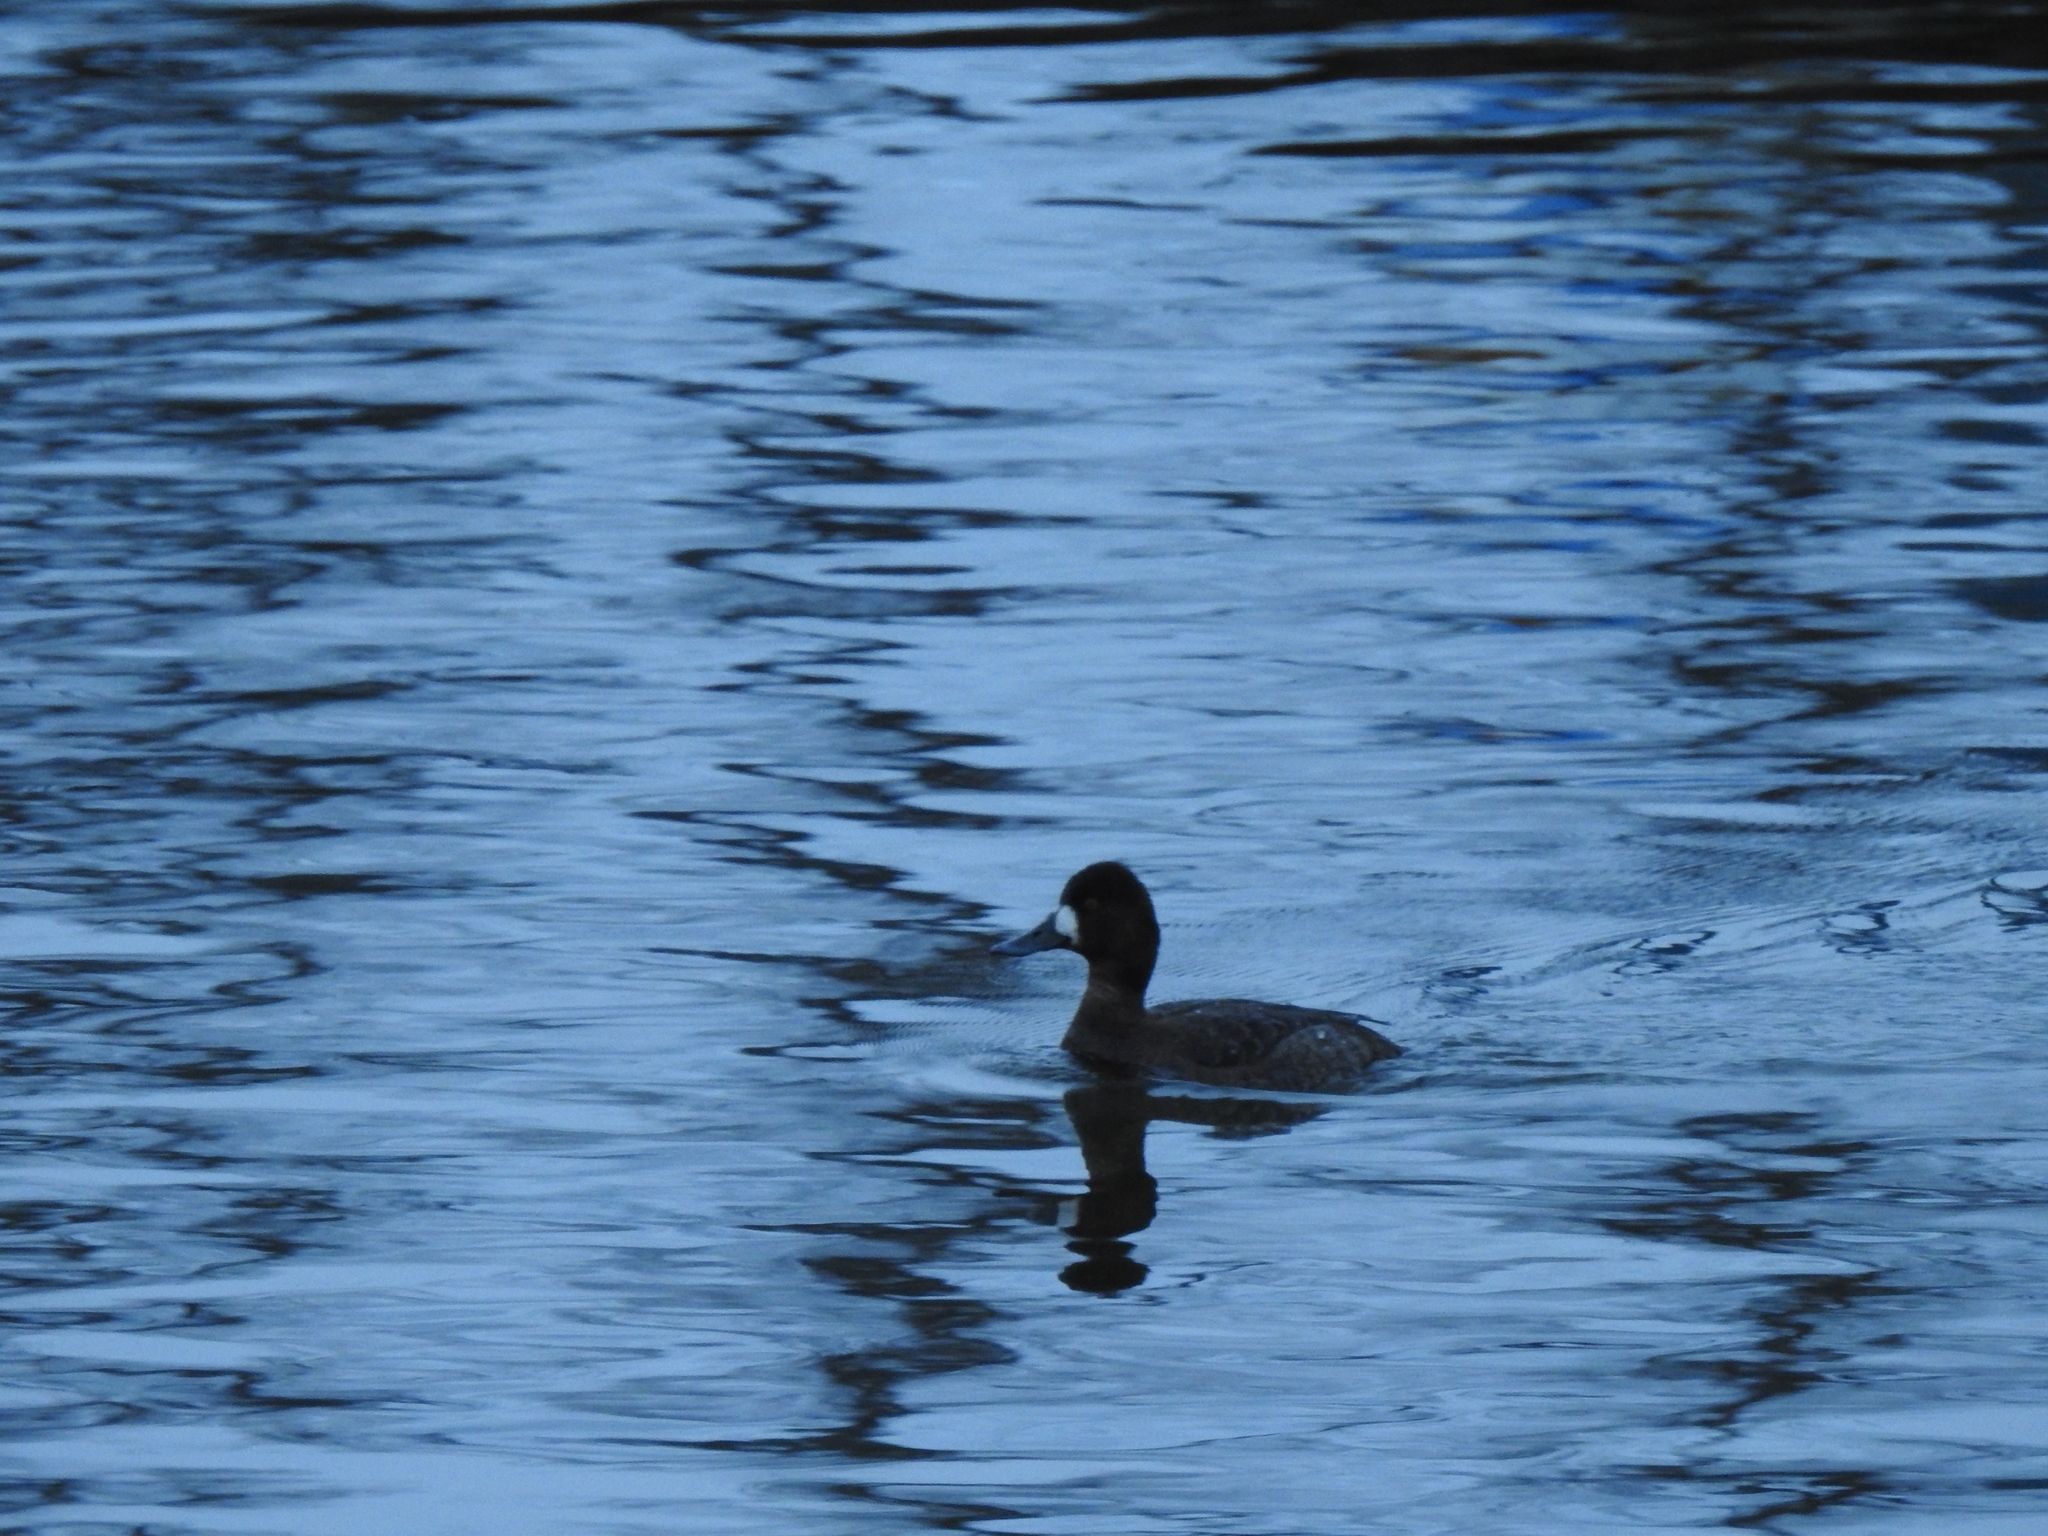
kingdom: Animalia
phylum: Chordata
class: Aves
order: Anseriformes
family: Anatidae
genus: Aythya
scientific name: Aythya affinis
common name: Lesser scaup
